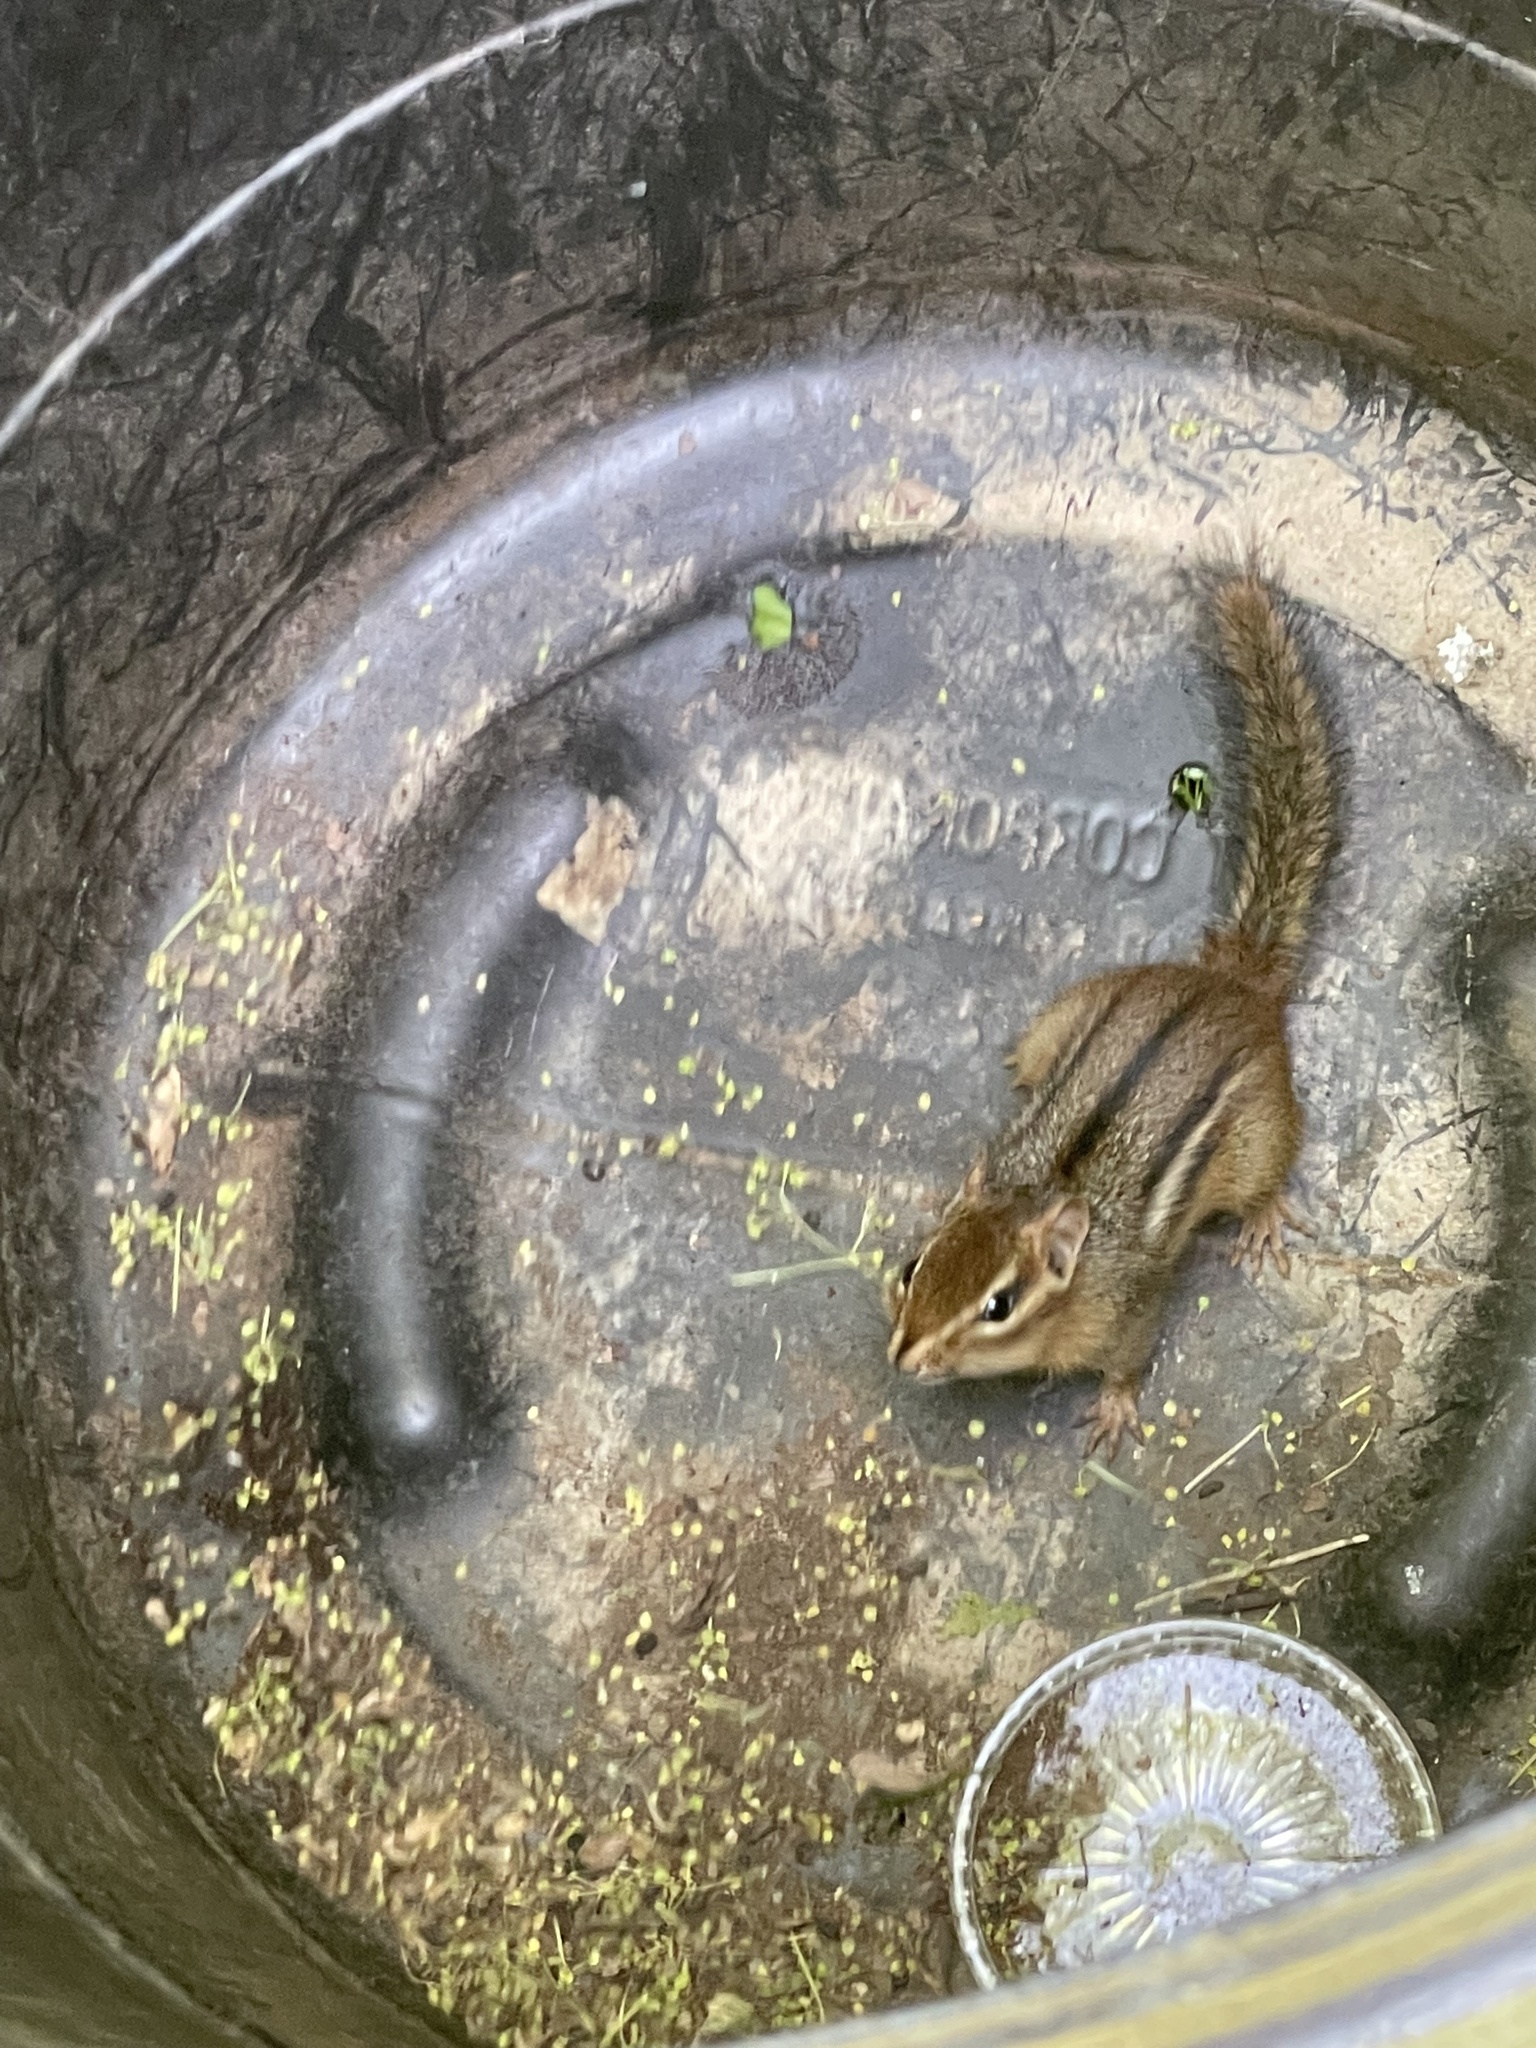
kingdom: Animalia
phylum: Chordata
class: Mammalia
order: Rodentia
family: Sciuridae
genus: Tamias
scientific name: Tamias striatus
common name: Eastern chipmunk
